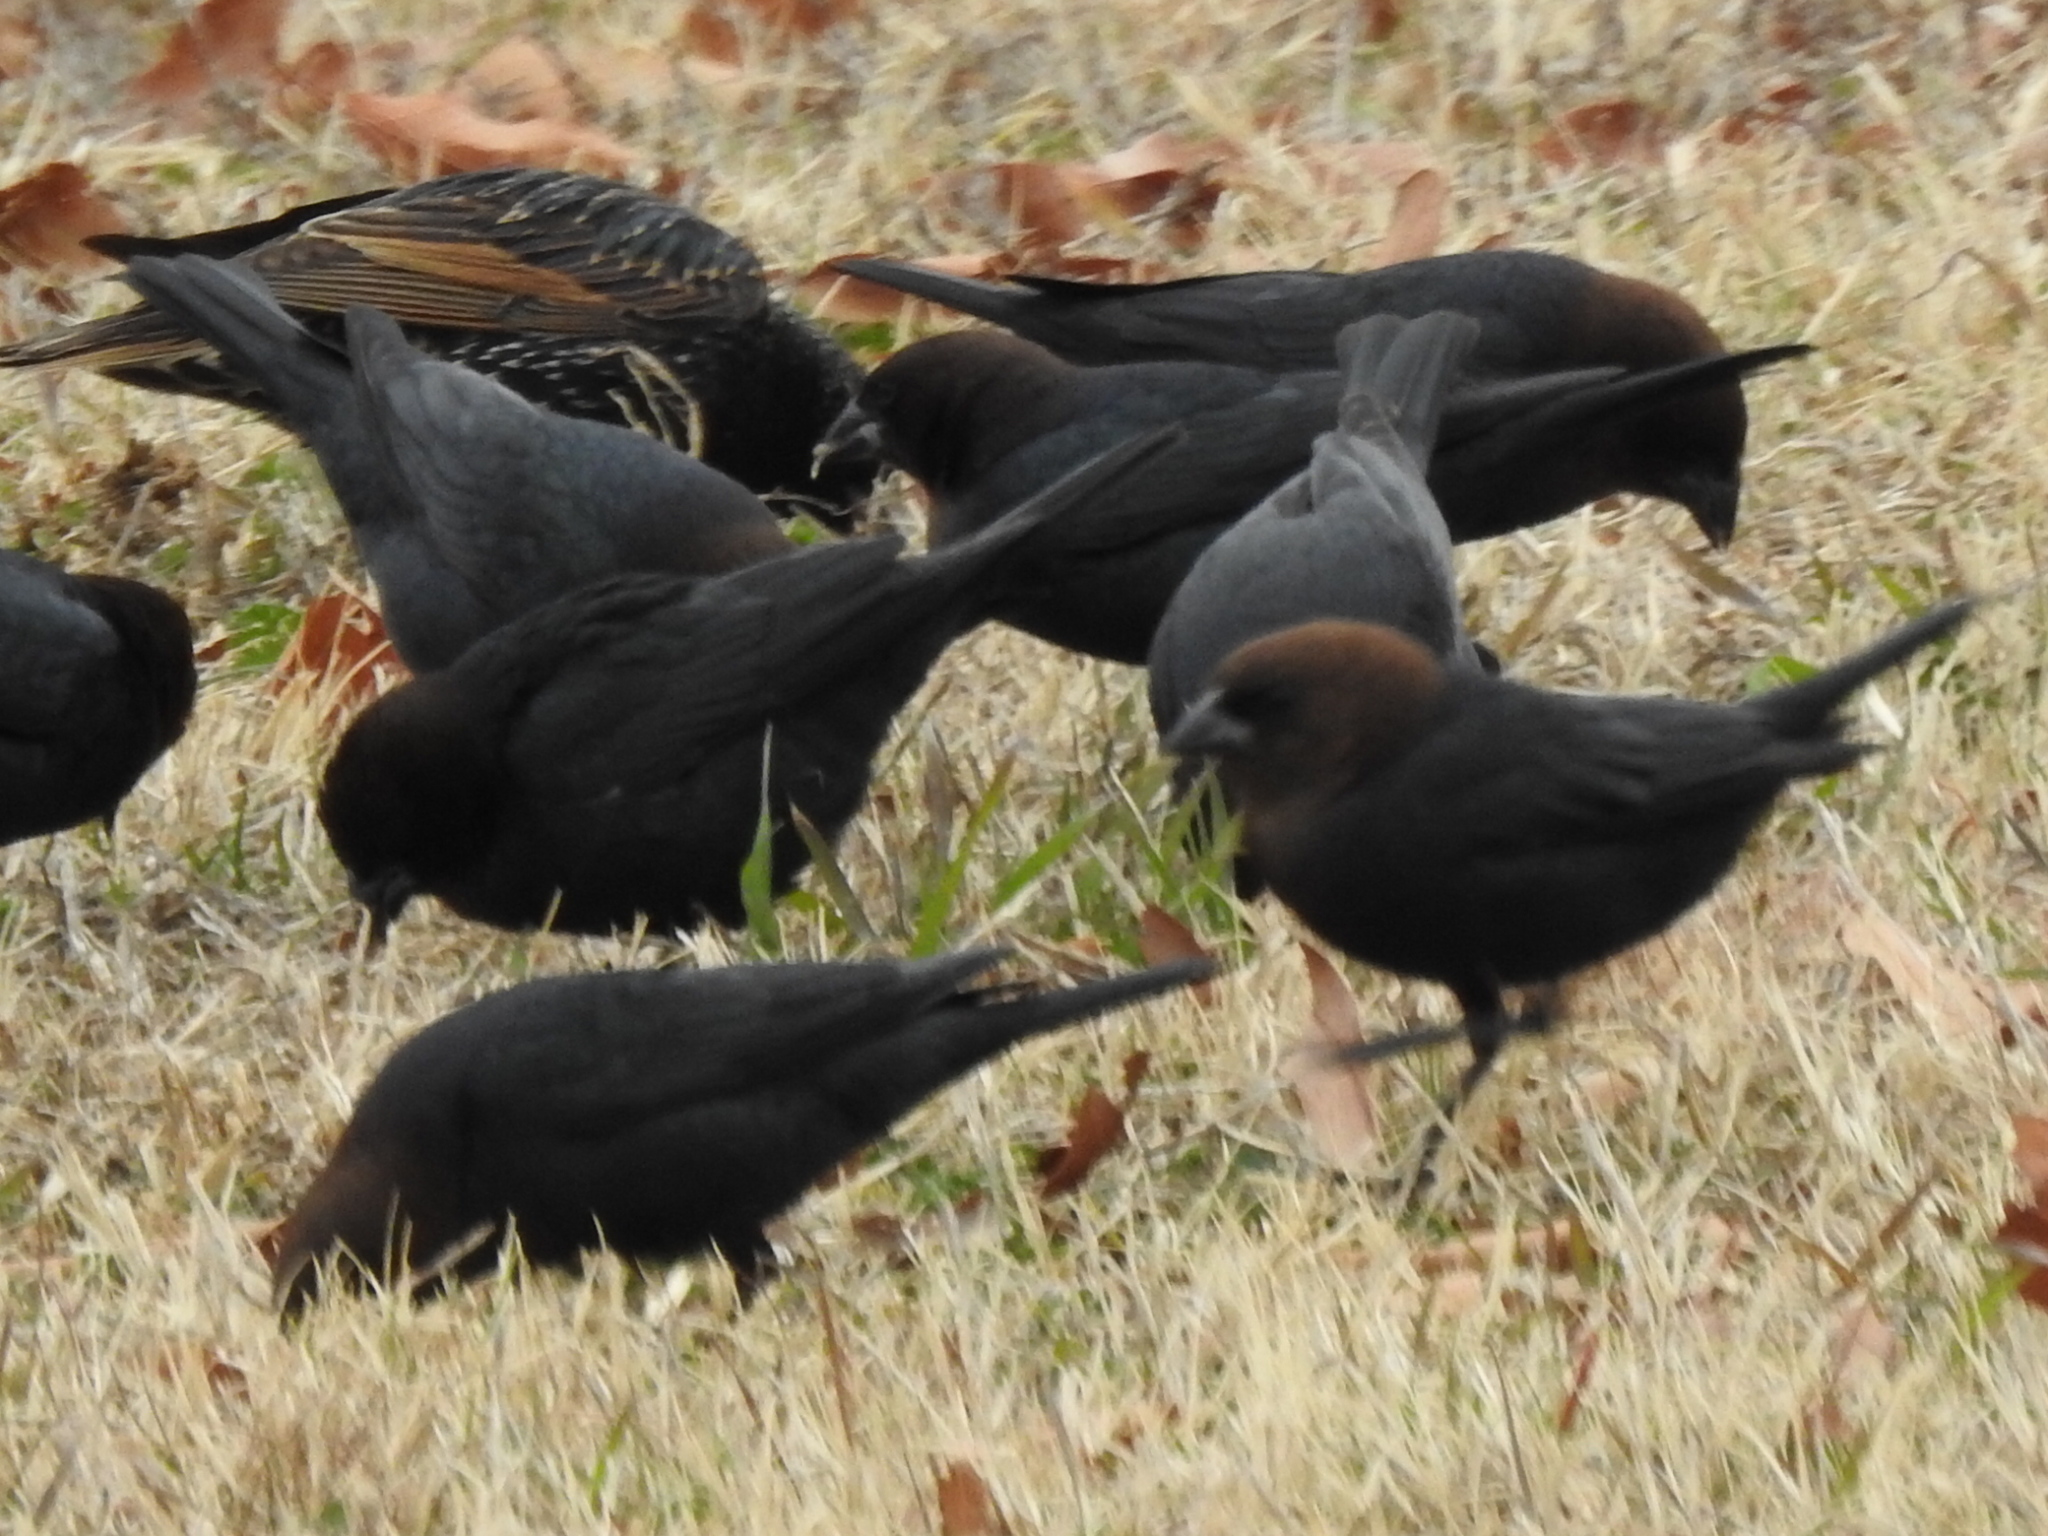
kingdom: Animalia
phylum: Chordata
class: Aves
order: Passeriformes
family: Icteridae
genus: Molothrus
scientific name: Molothrus ater
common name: Brown-headed cowbird
